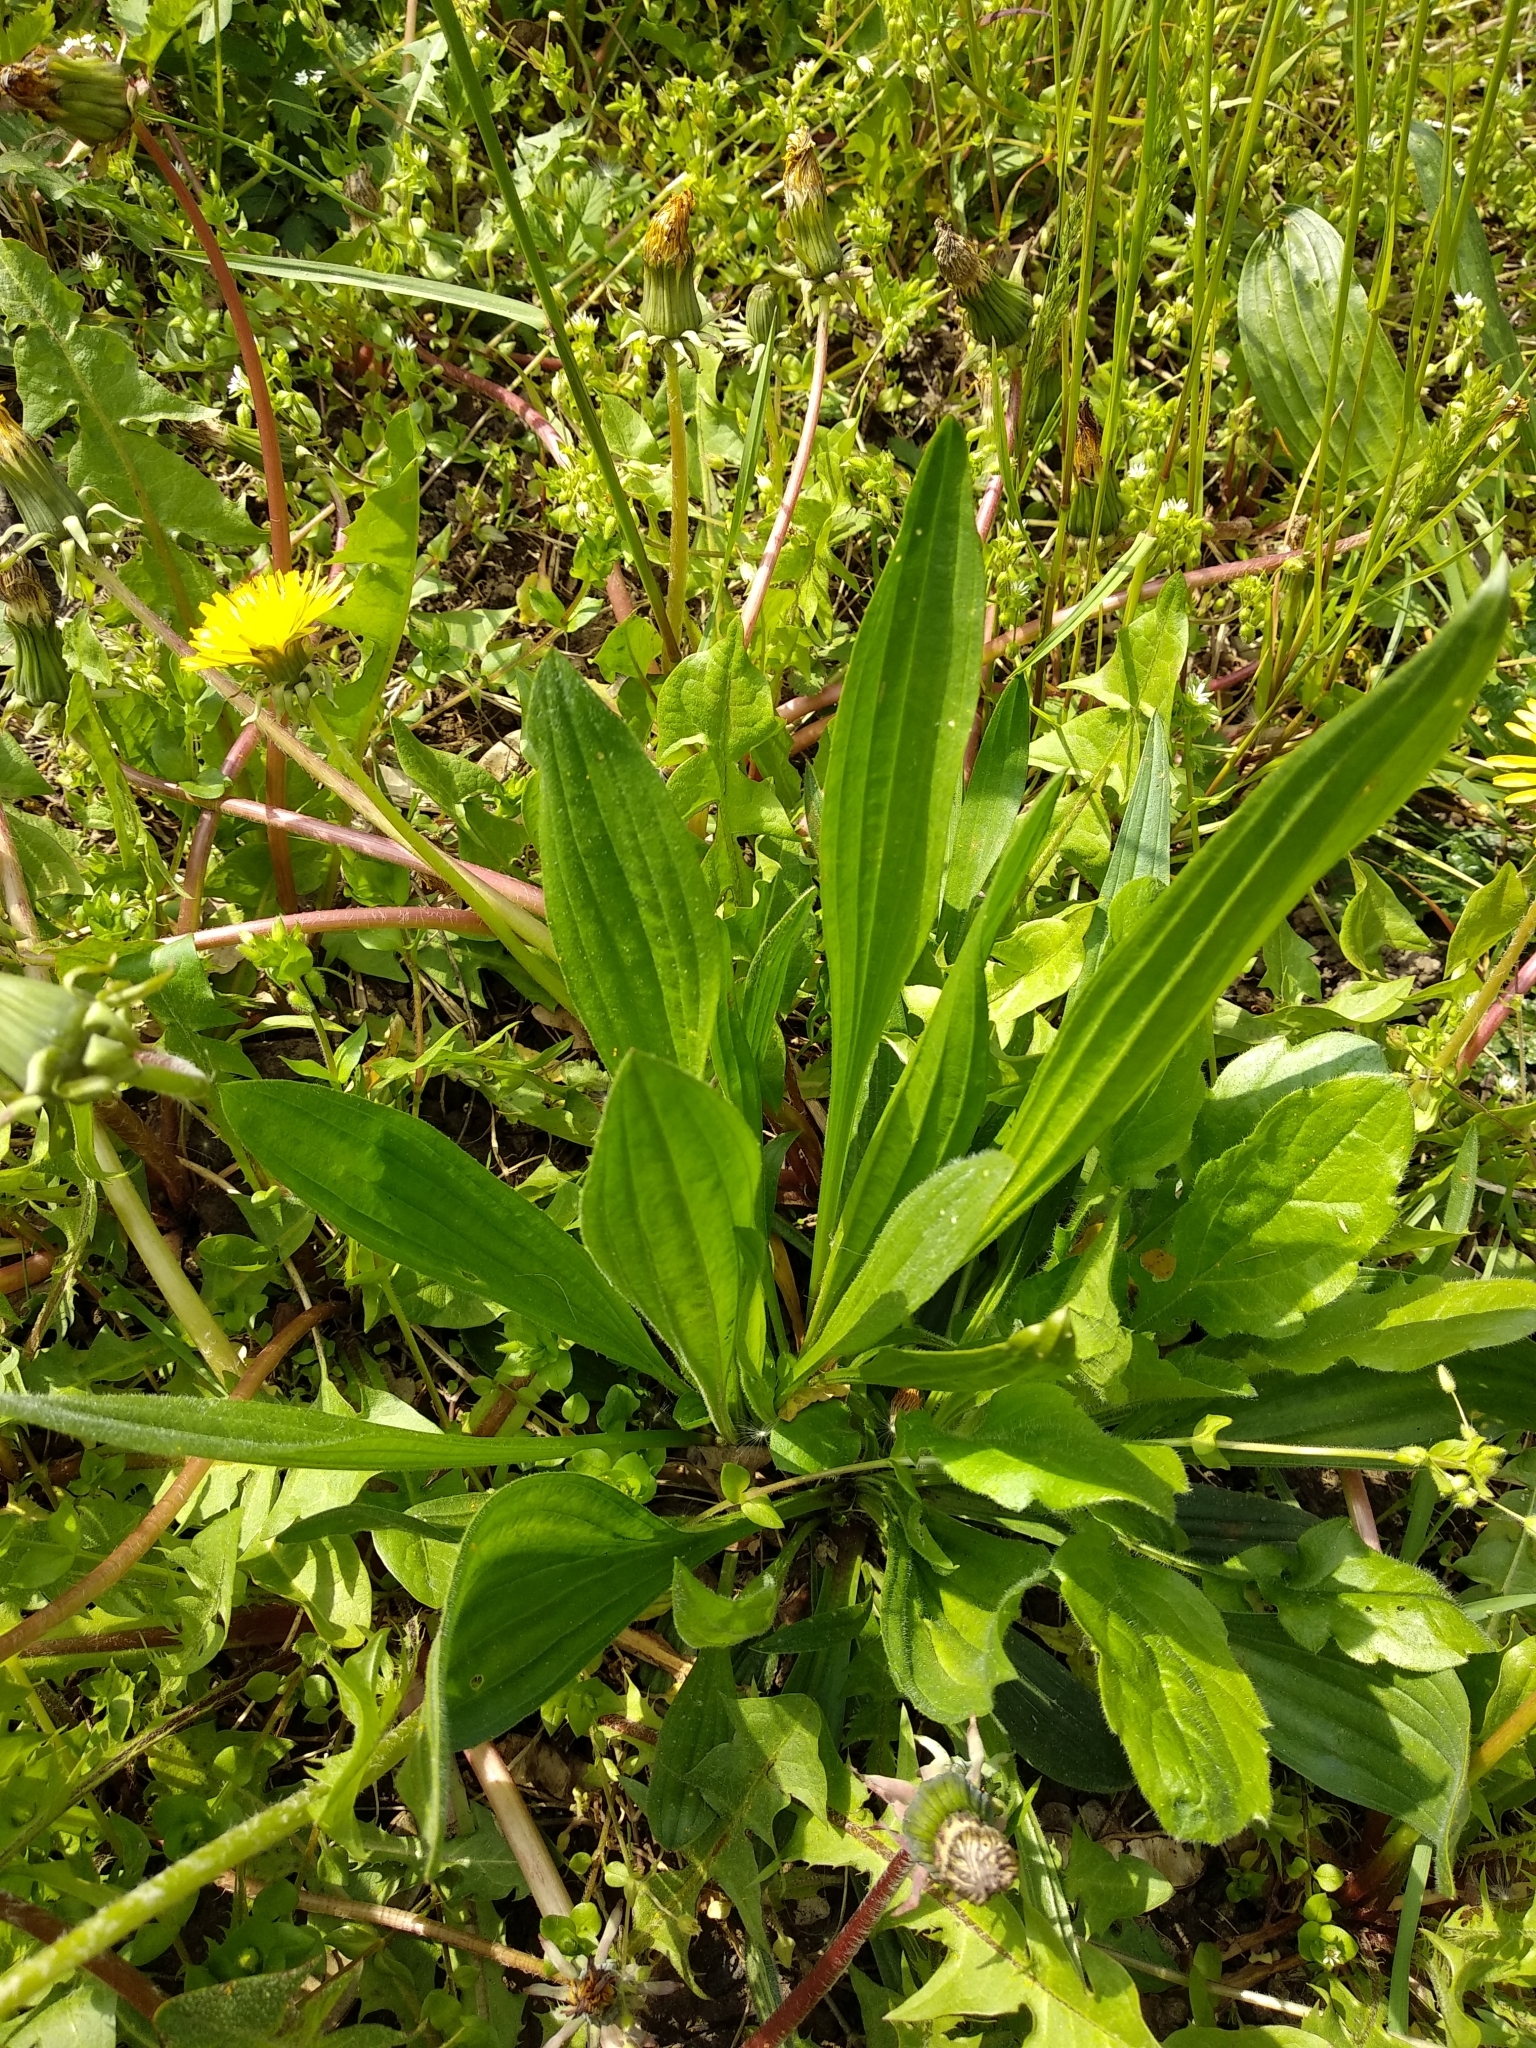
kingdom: Plantae
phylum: Tracheophyta
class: Magnoliopsida
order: Lamiales
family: Plantaginaceae
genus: Plantago
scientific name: Plantago lanceolata
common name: Ribwort plantain
